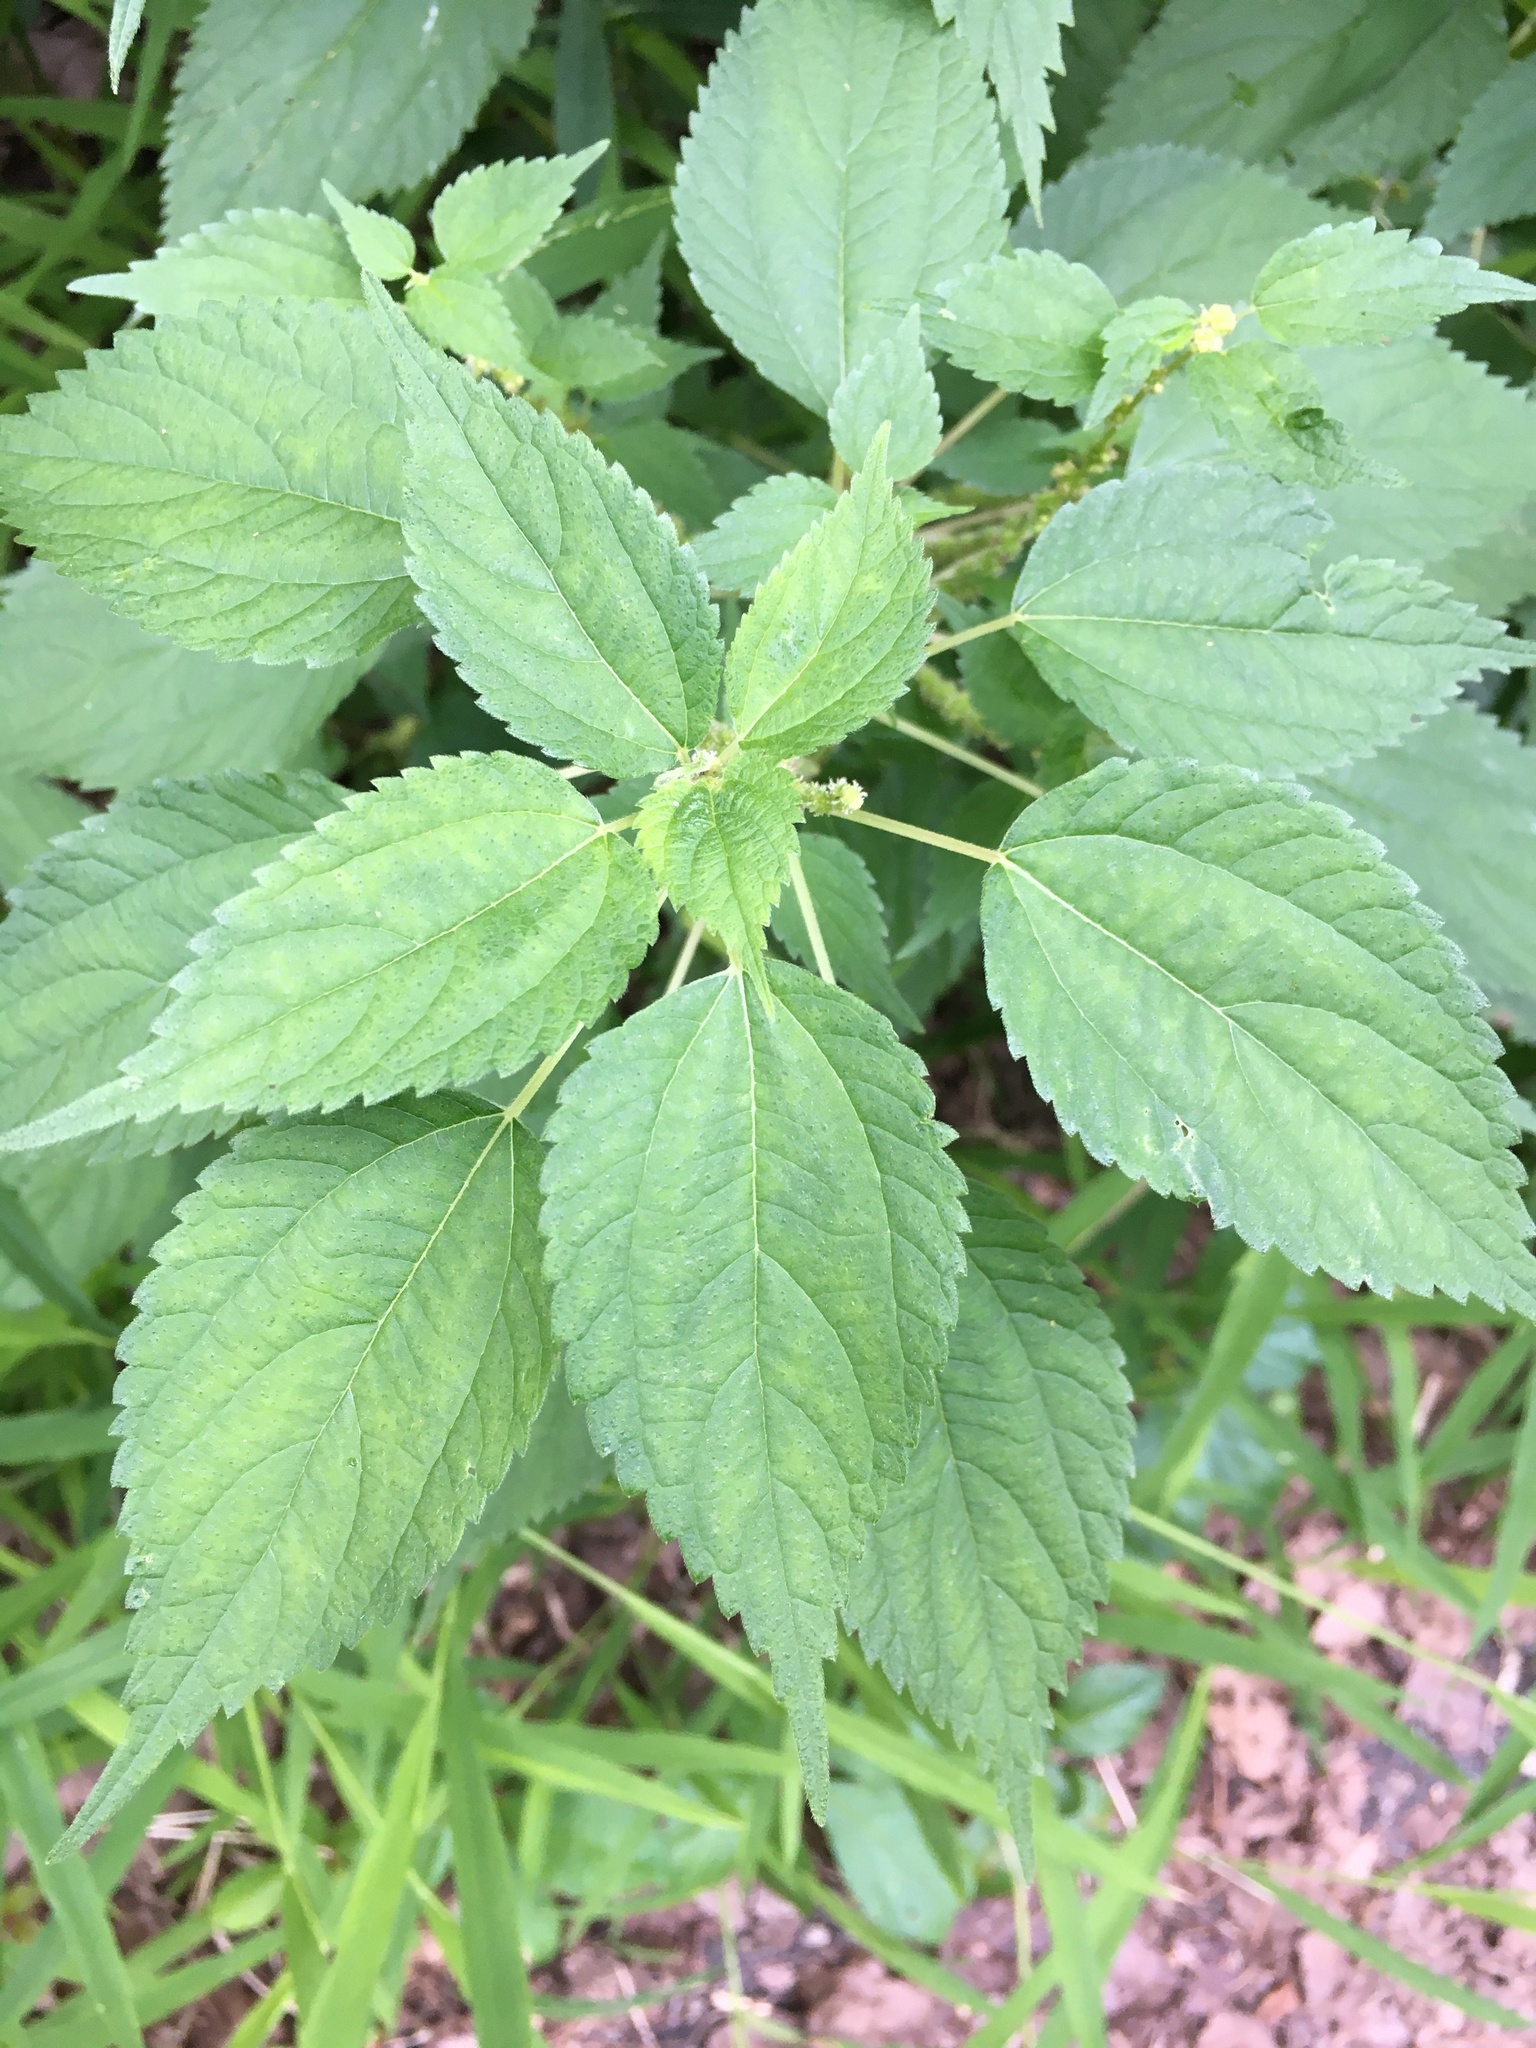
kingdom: Plantae
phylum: Tracheophyta
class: Magnoliopsida
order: Rosales
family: Urticaceae
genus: Boehmeria
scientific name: Boehmeria cylindrica
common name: Bog-hemp
